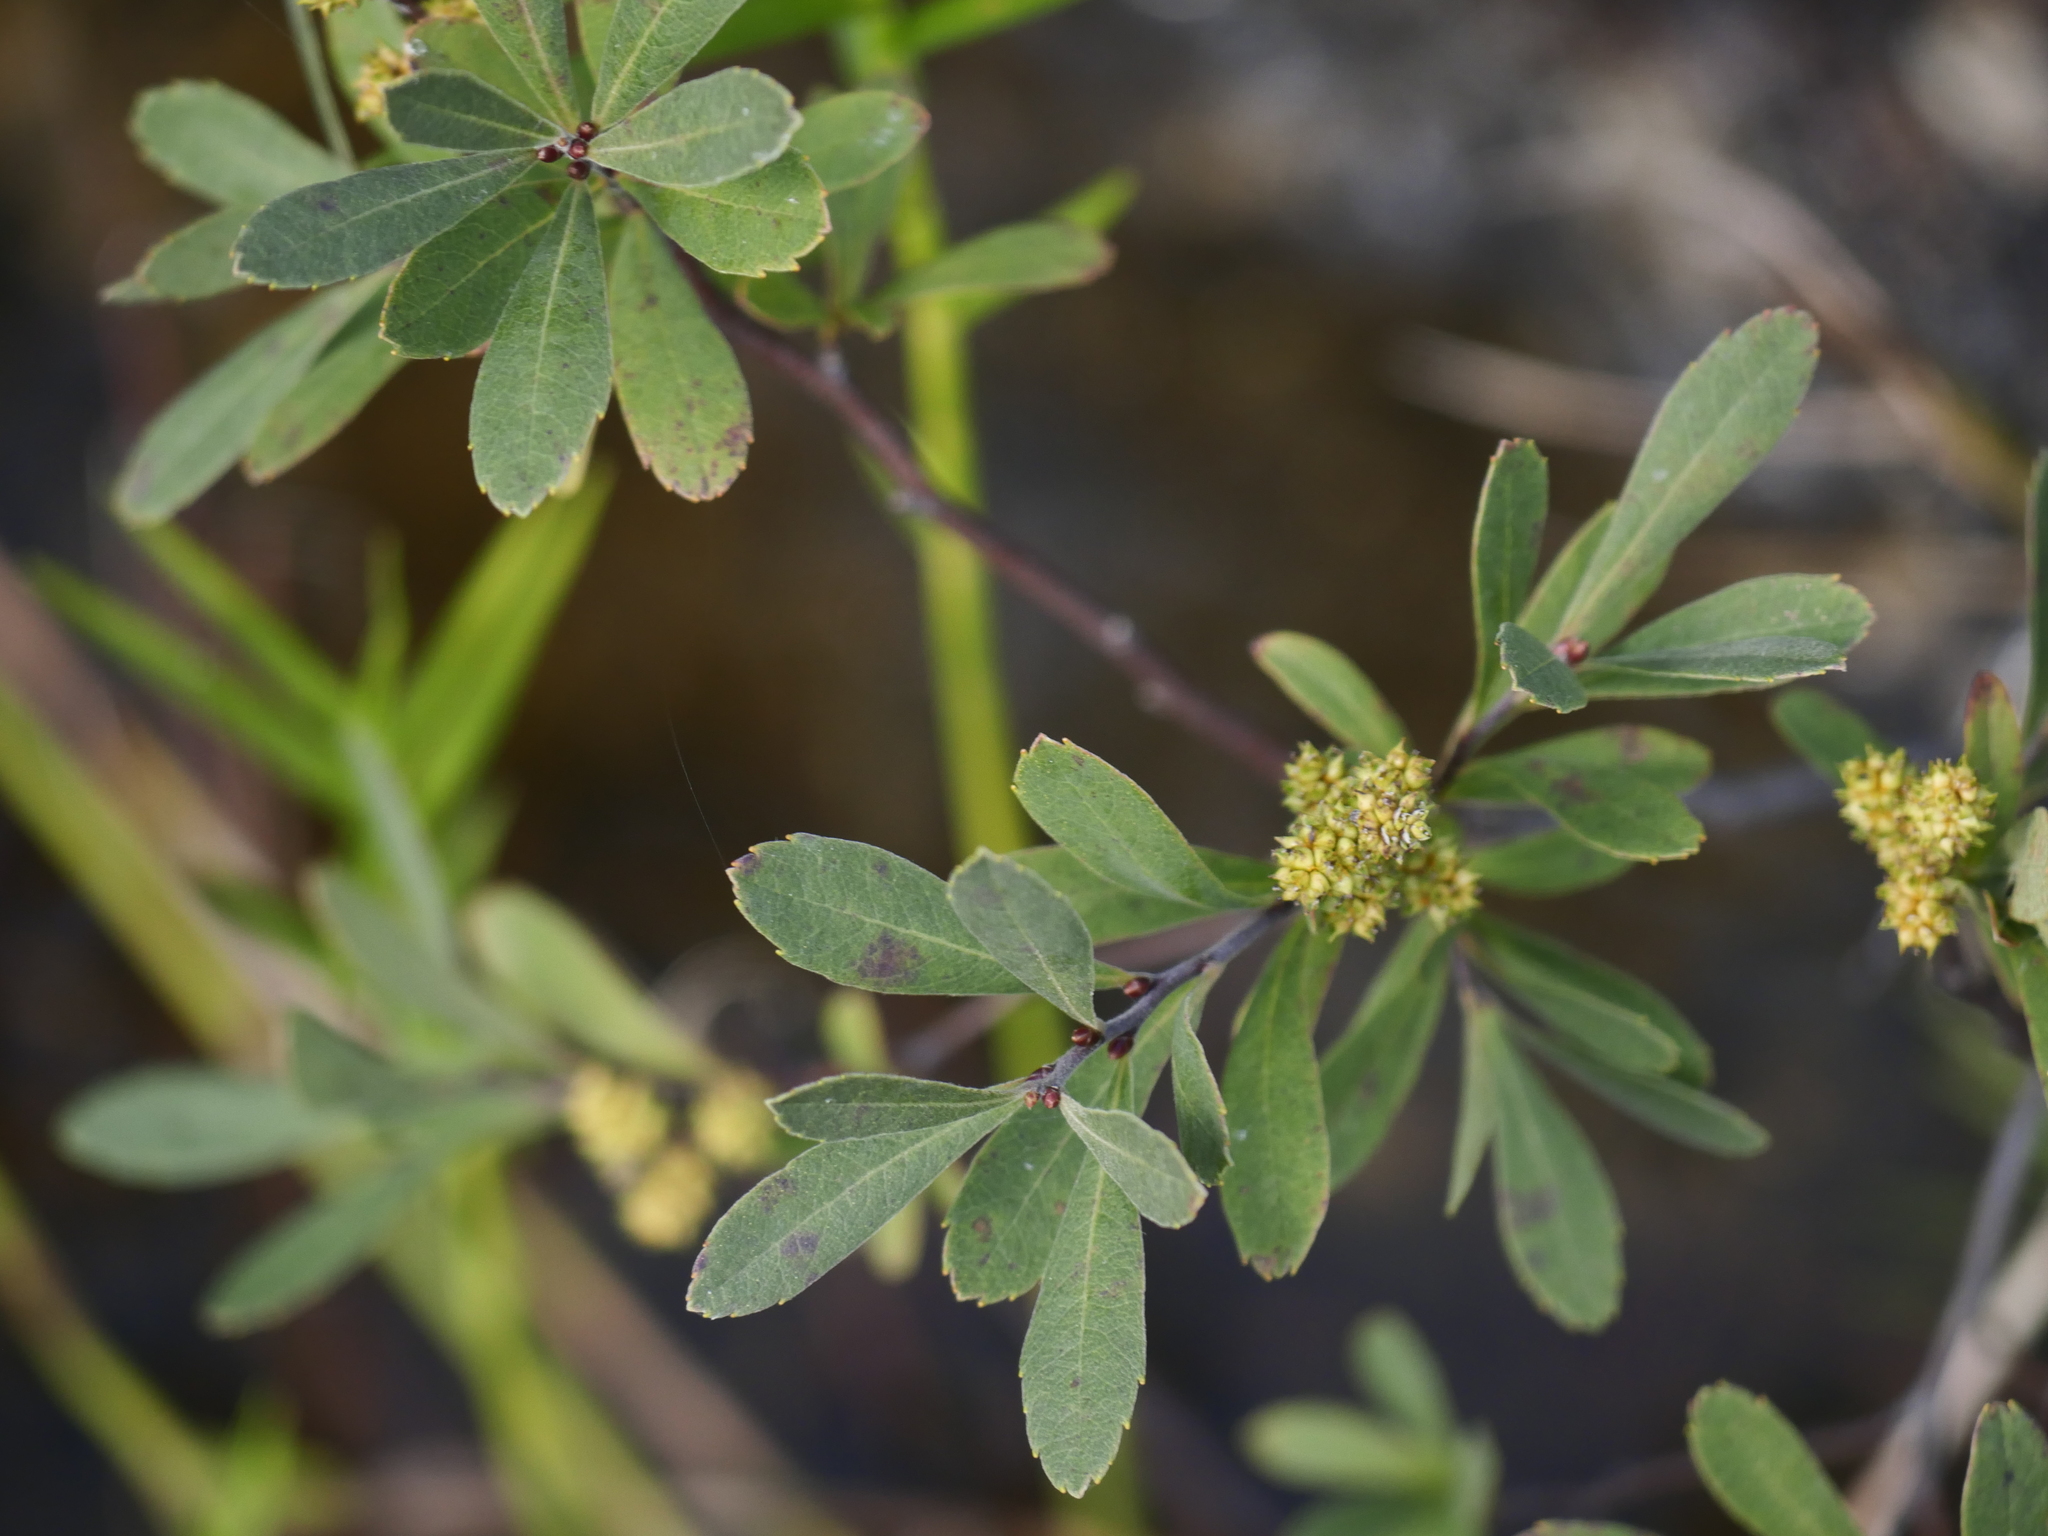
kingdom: Plantae
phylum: Tracheophyta
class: Magnoliopsida
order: Fagales
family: Myricaceae
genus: Myrica
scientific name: Myrica gale
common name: Sweet gale
